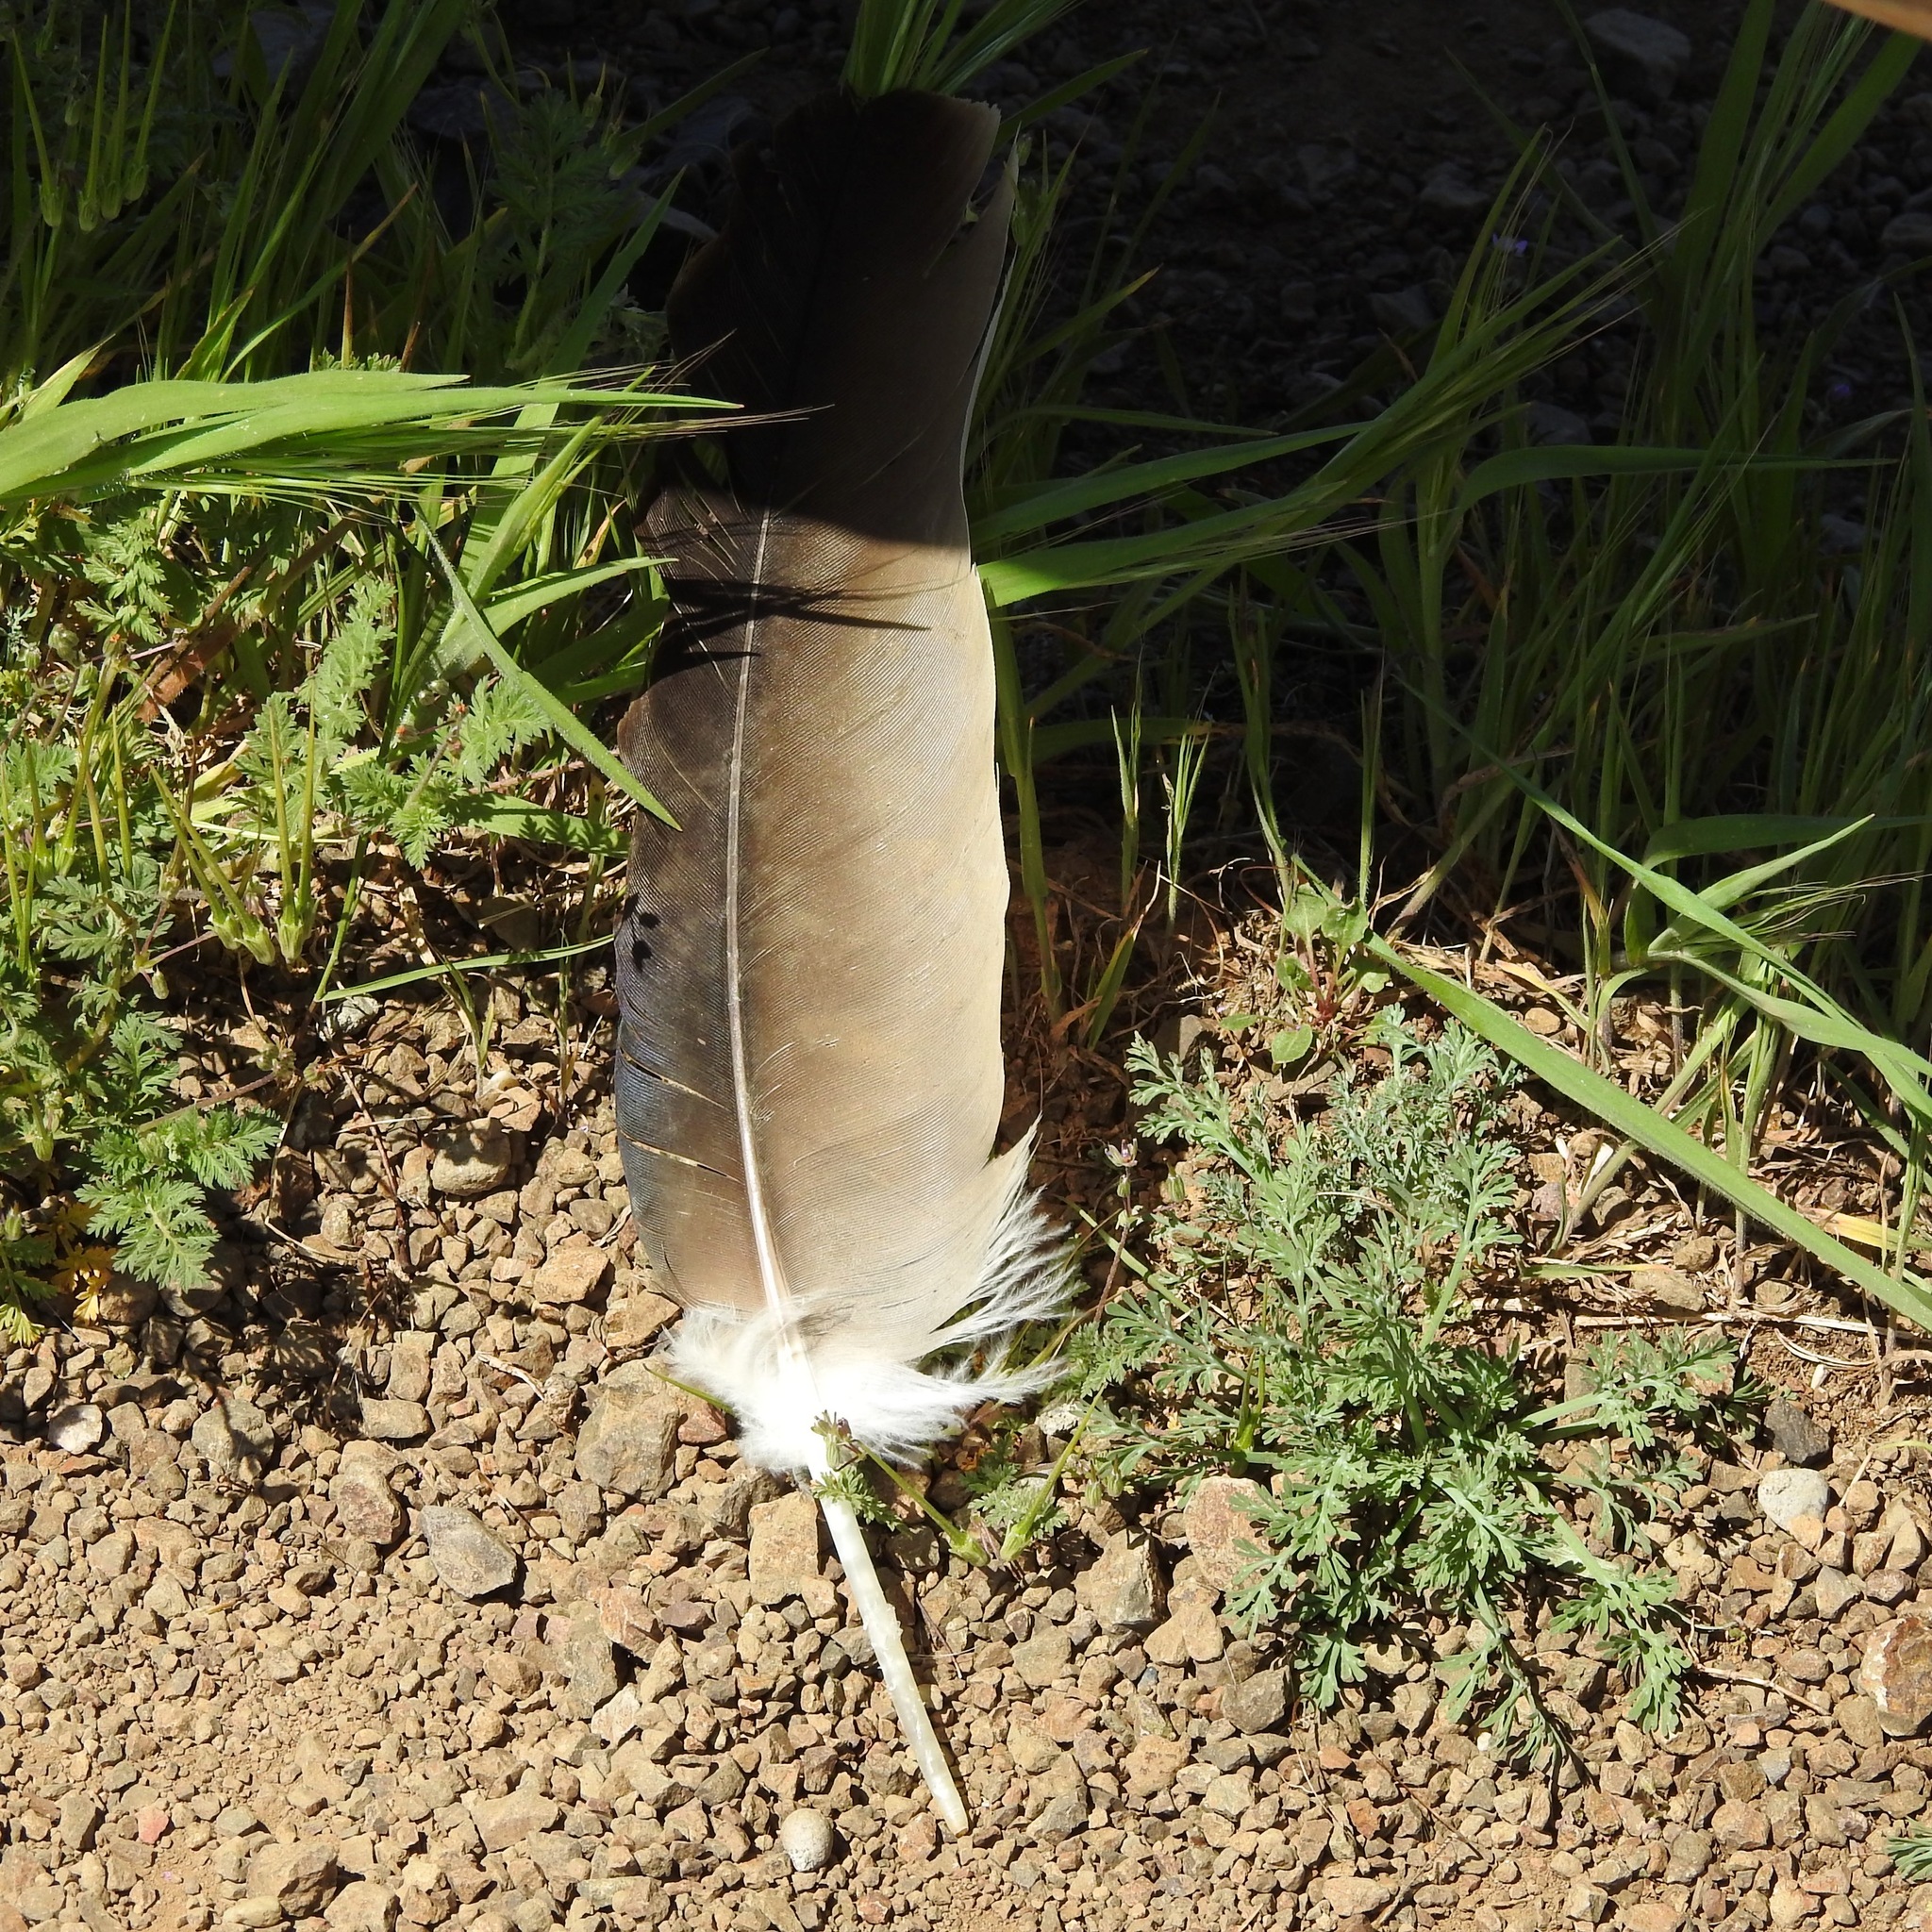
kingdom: Animalia
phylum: Chordata
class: Aves
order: Accipitriformes
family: Cathartidae
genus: Cathartes
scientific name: Cathartes aura
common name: Turkey vulture
